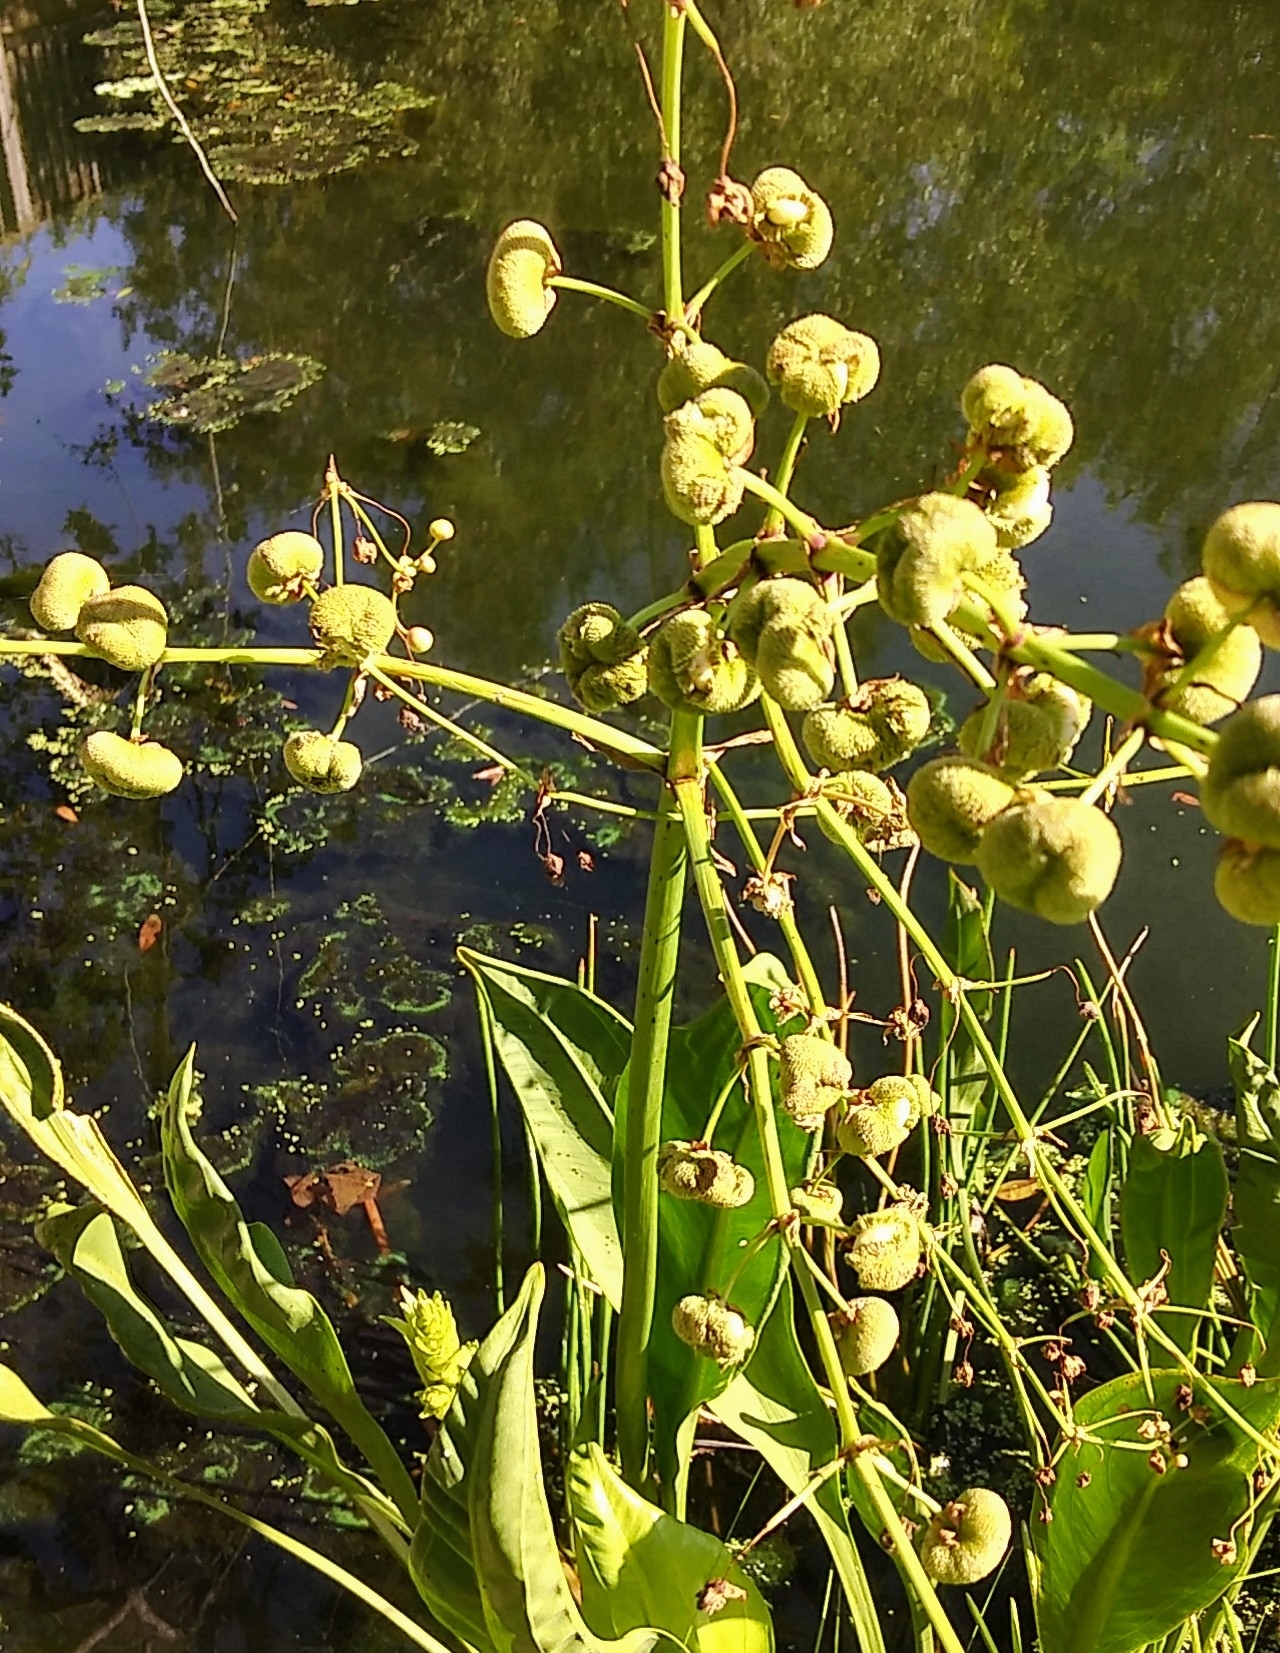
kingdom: Plantae
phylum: Tracheophyta
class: Liliopsida
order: Alismatales
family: Alismataceae
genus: Sagittaria
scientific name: Sagittaria lancifolia
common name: Lance-leaf arrowhead
